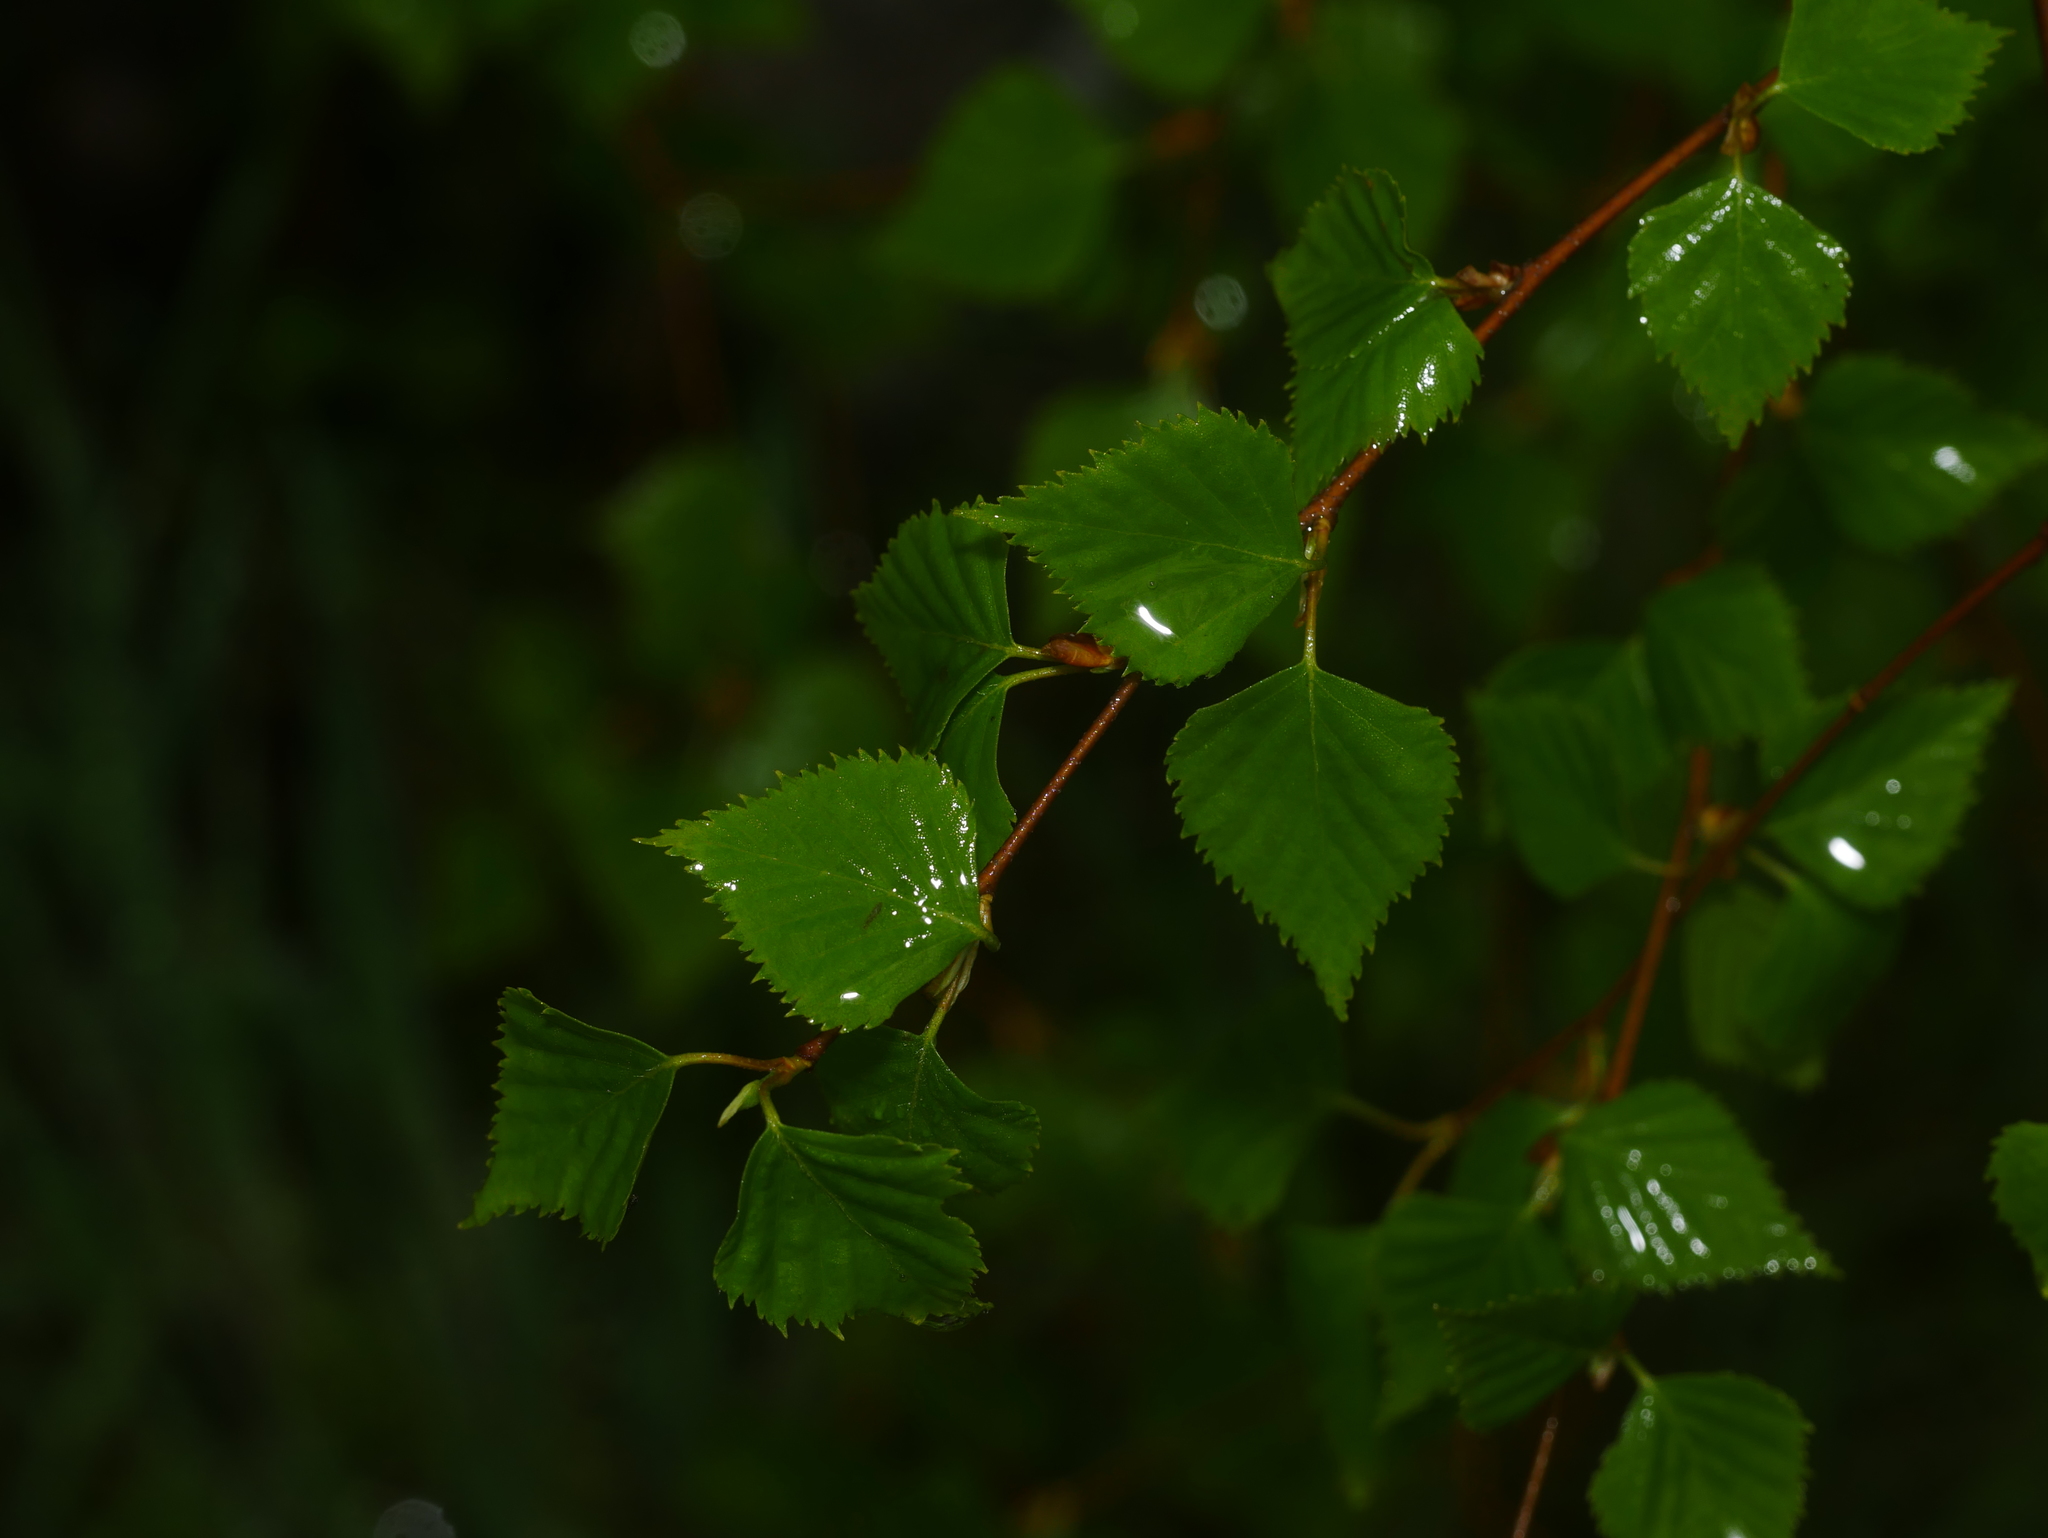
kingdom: Plantae
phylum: Tracheophyta
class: Magnoliopsida
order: Fagales
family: Betulaceae
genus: Betula
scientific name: Betula pendula
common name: Silver birch
